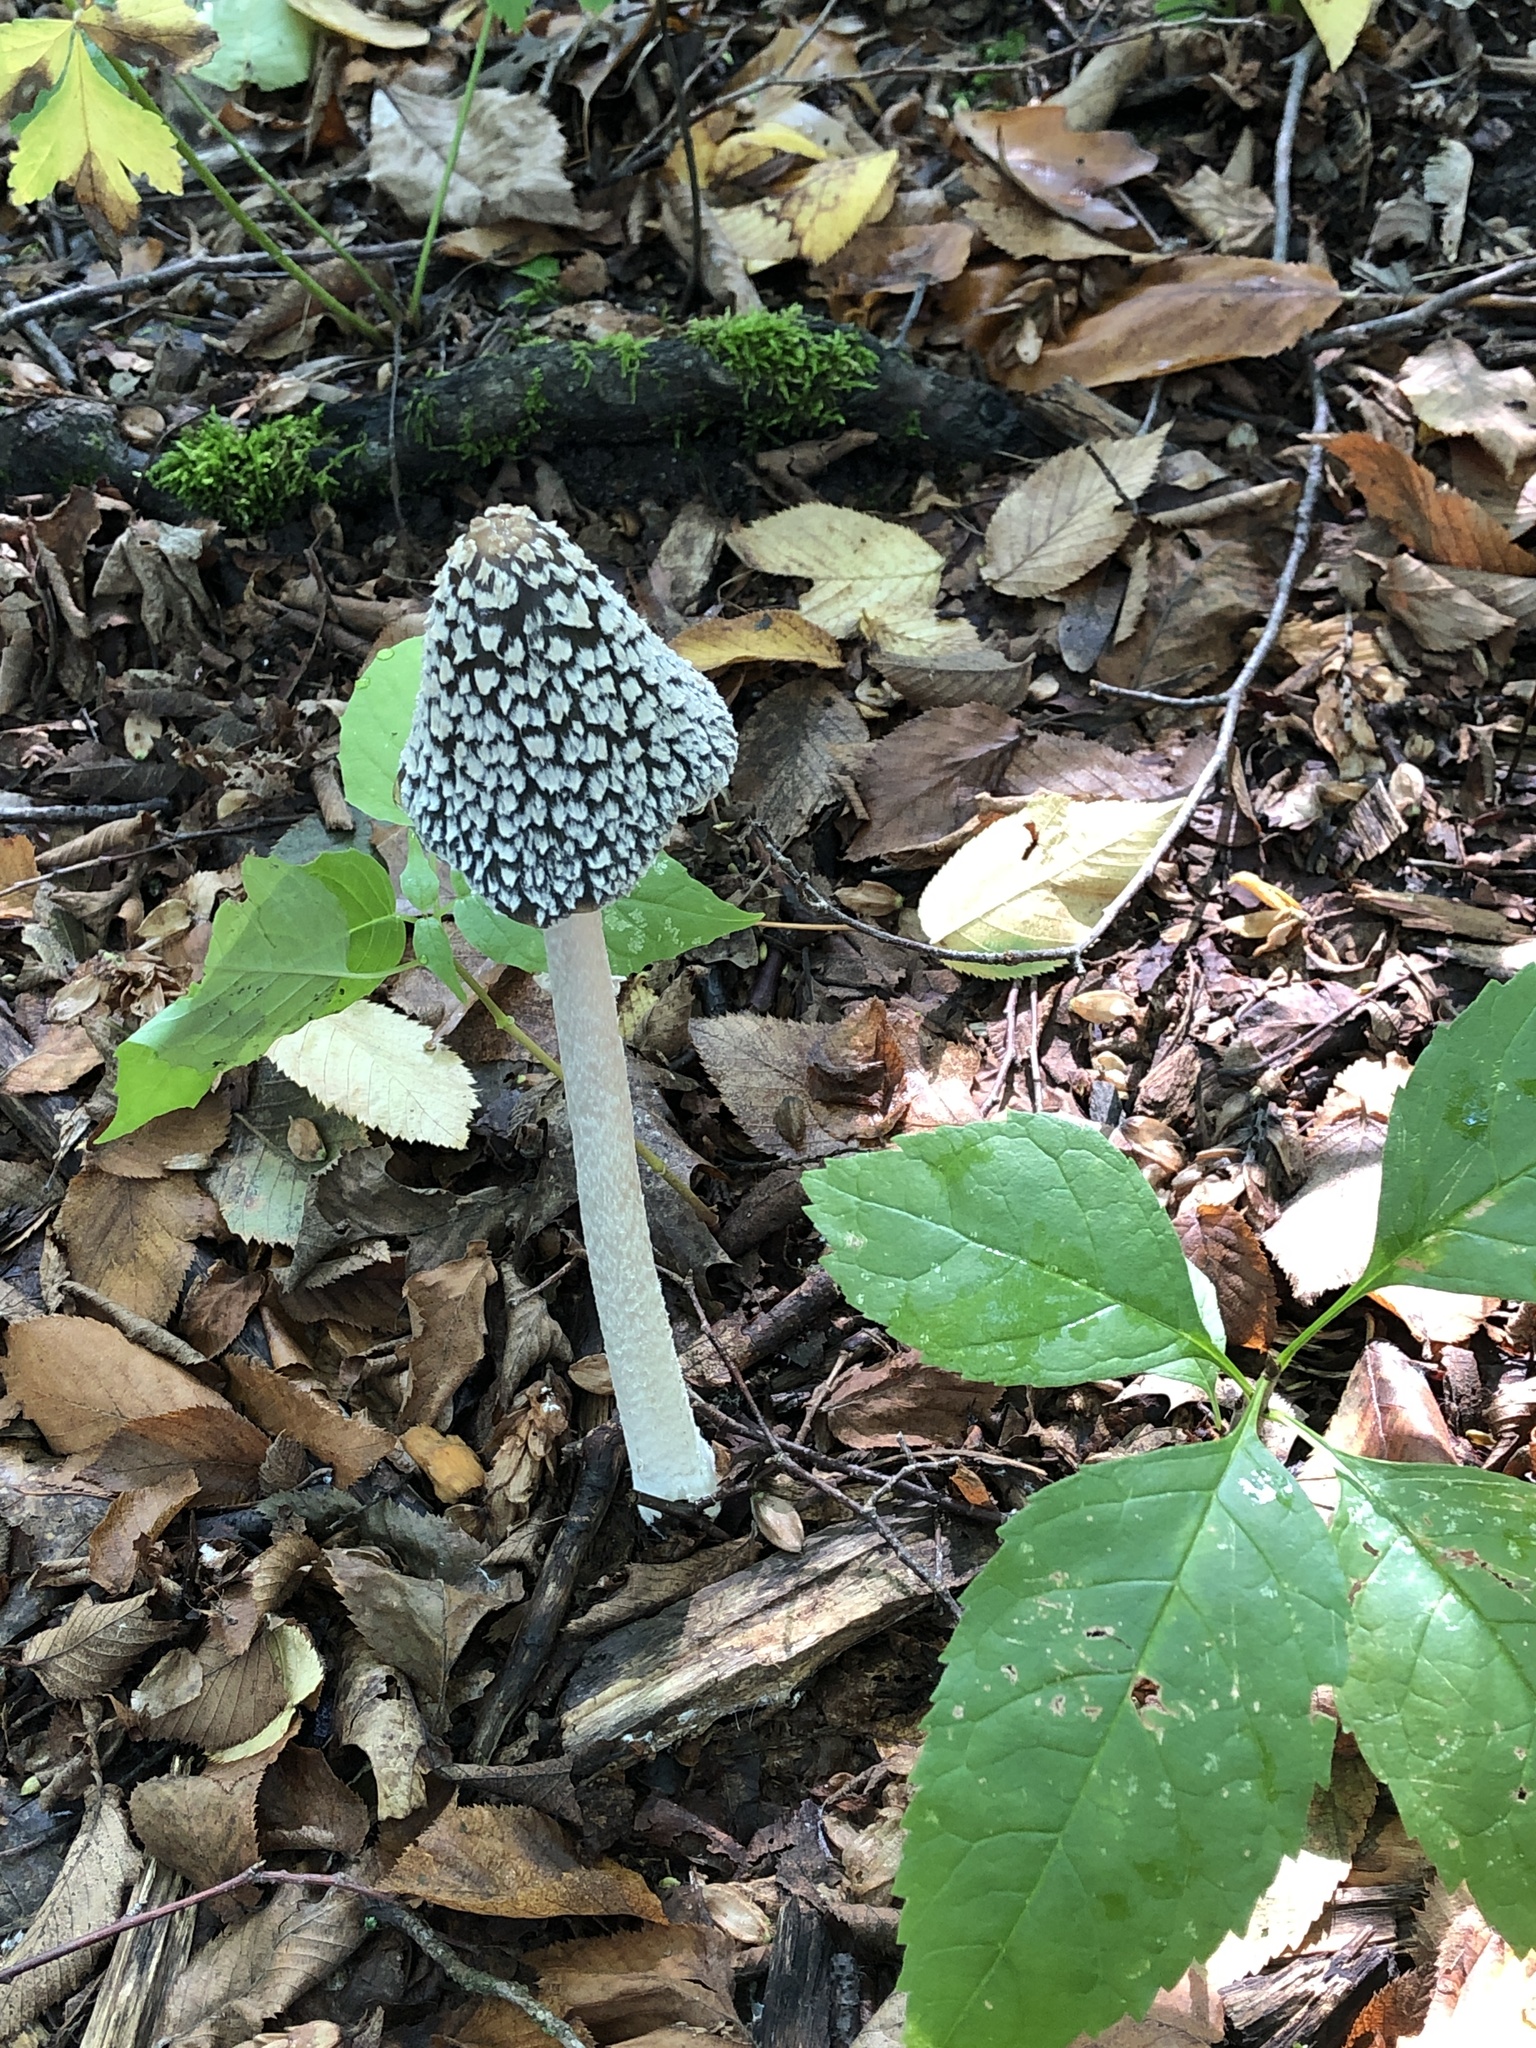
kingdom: Fungi
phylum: Basidiomycota
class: Agaricomycetes
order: Agaricales
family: Psathyrellaceae
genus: Coprinopsis
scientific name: Coprinopsis picacea
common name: Magpie inkcap
